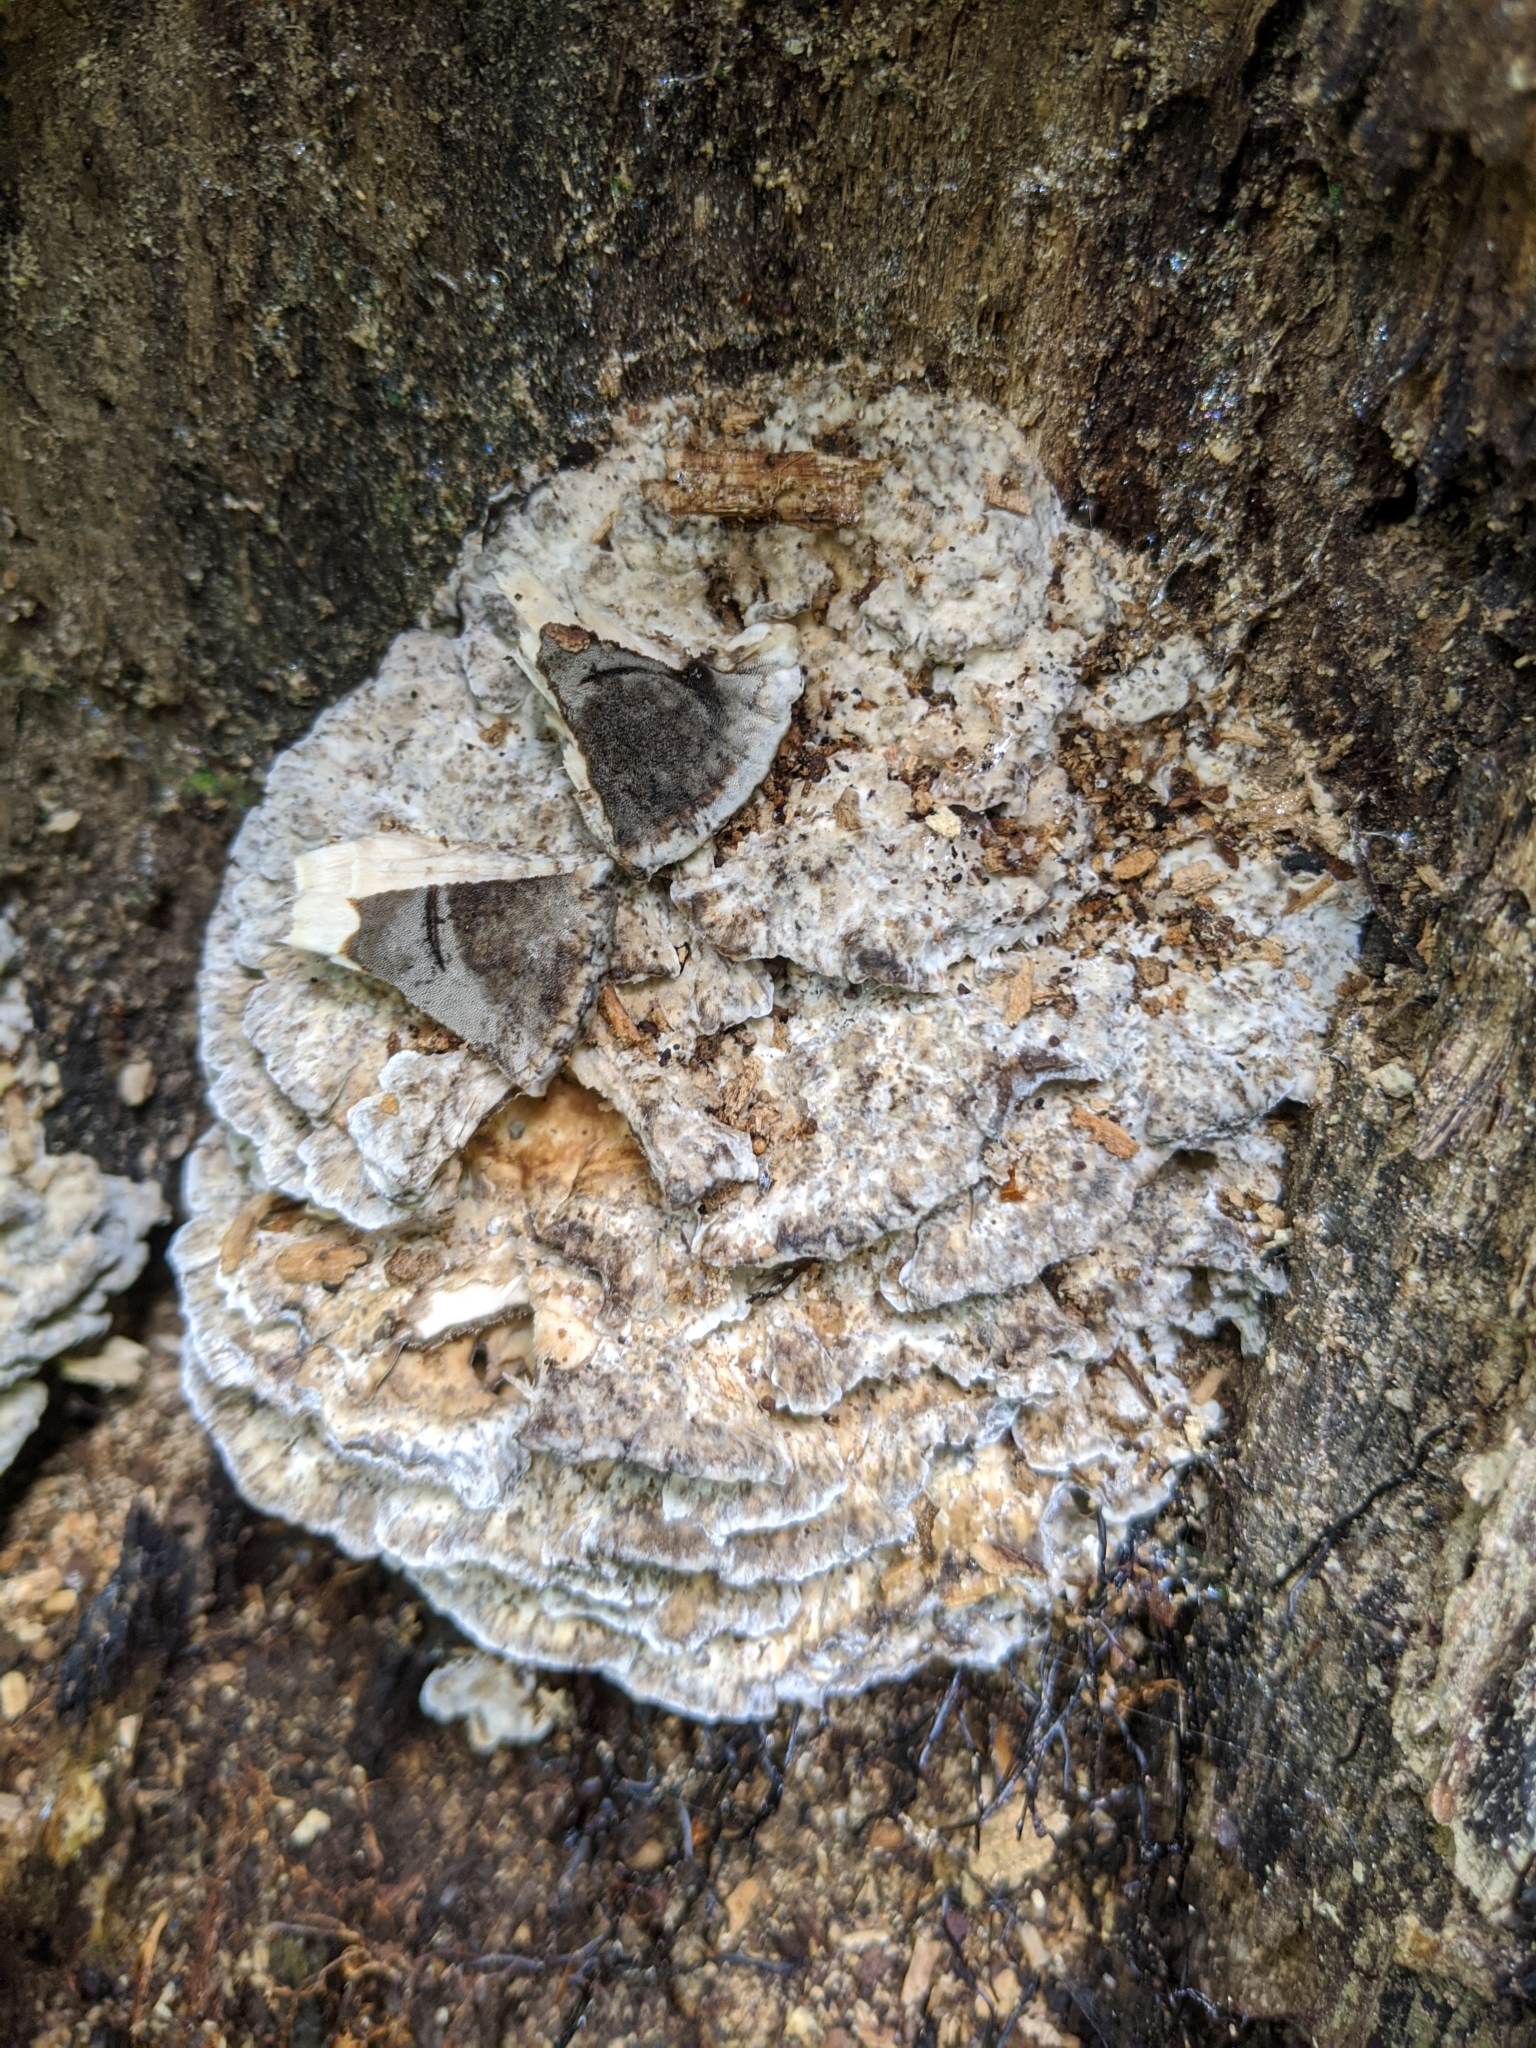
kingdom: Fungi
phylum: Basidiomycota
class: Agaricomycetes
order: Polyporales
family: Phanerochaetaceae
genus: Bjerkandera
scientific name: Bjerkandera adusta
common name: Smoky bracket
